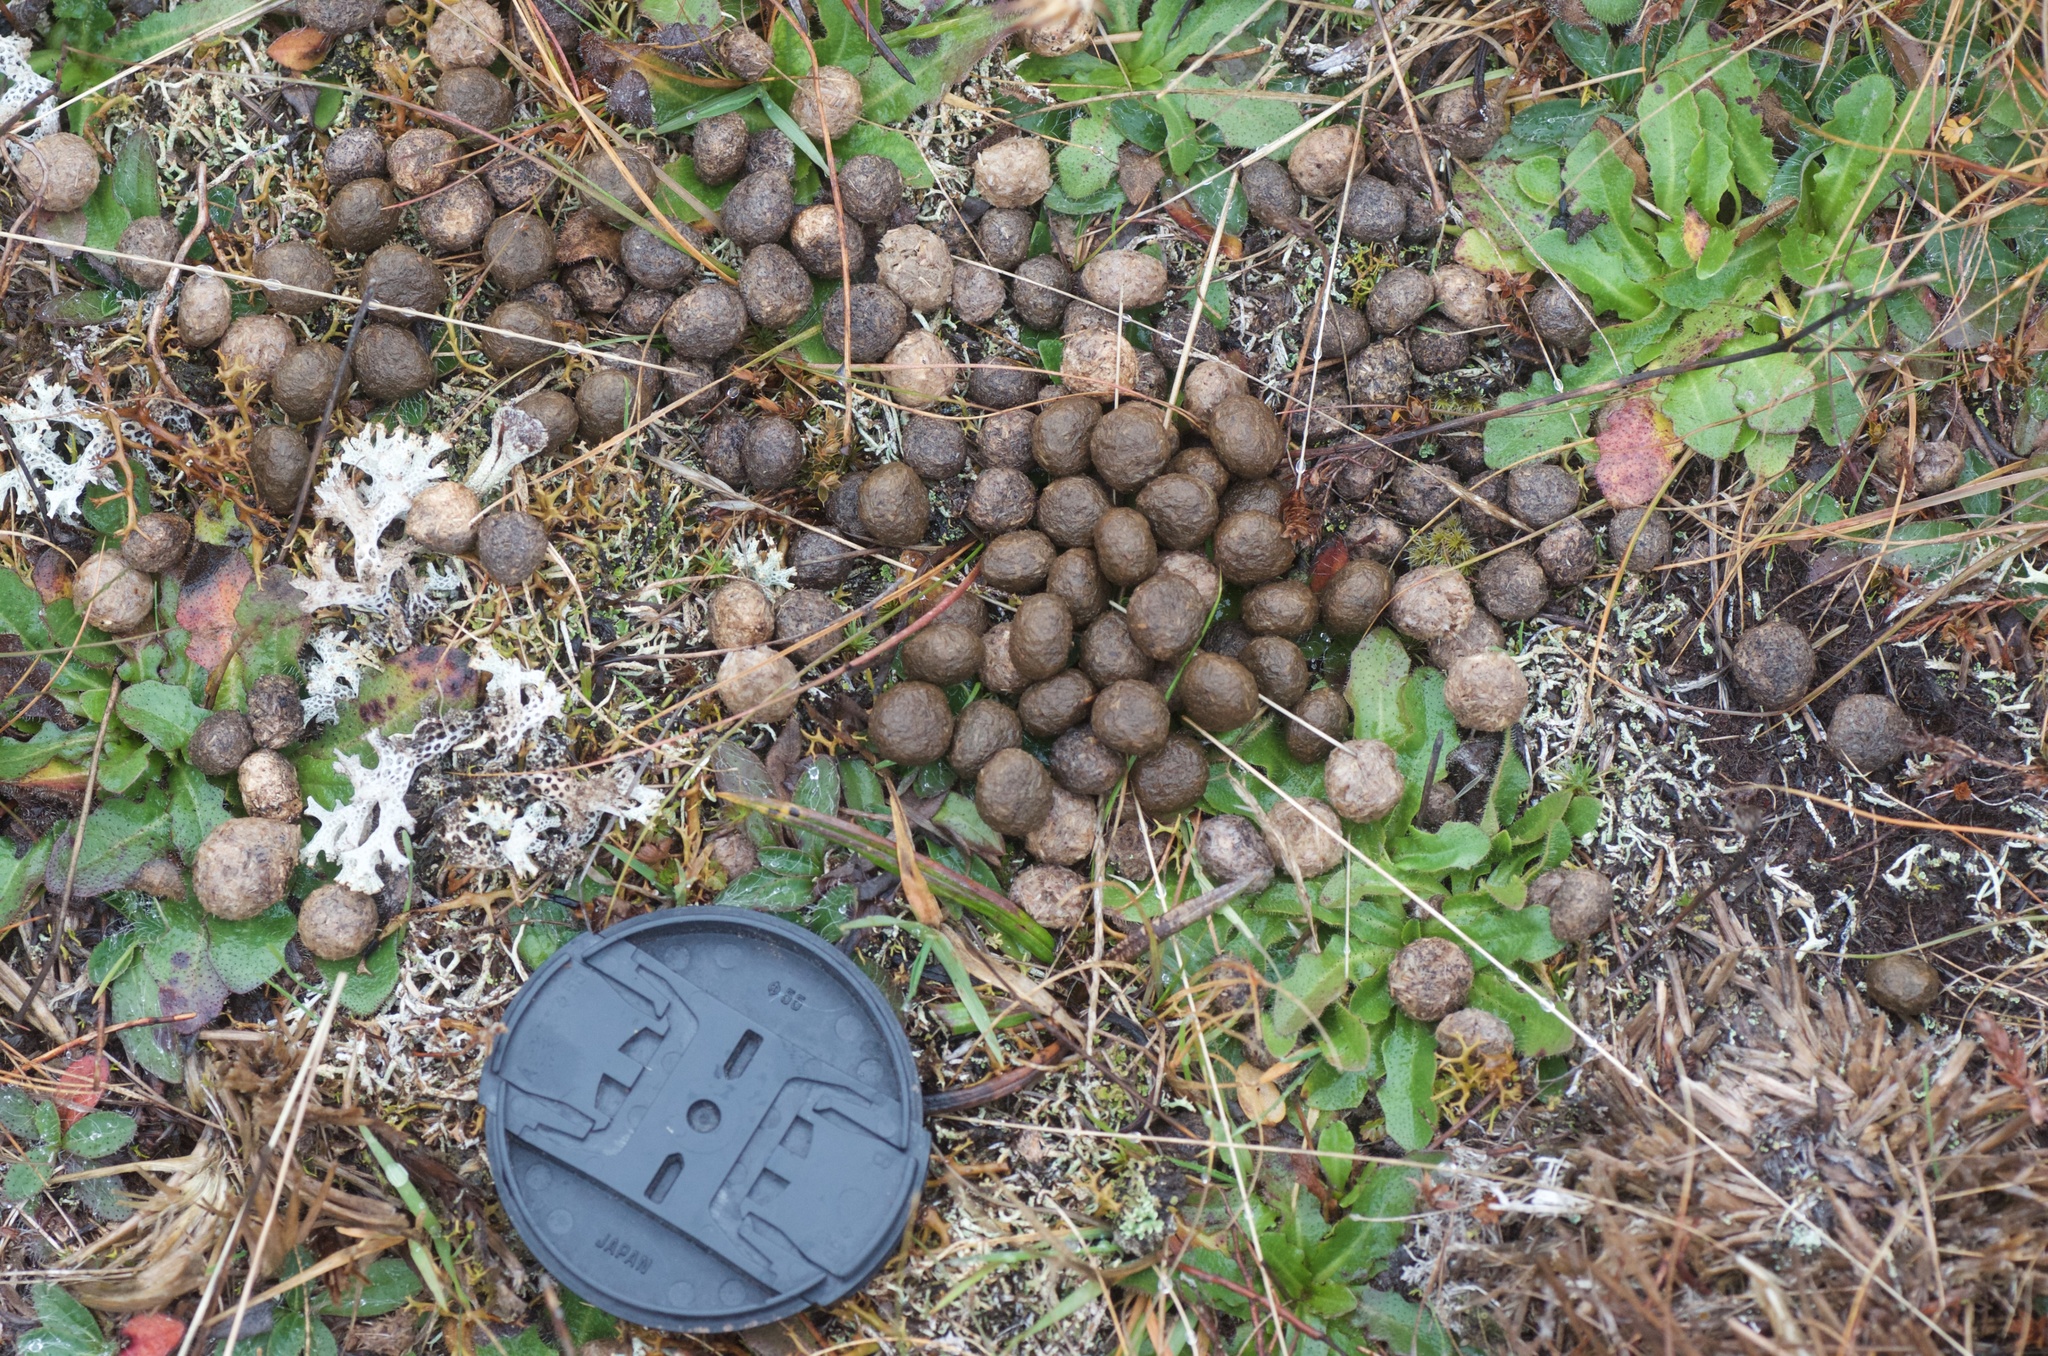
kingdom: Animalia
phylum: Chordata
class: Mammalia
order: Lagomorpha
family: Leporidae
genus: Oryctolagus
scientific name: Oryctolagus cuniculus
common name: European rabbit
